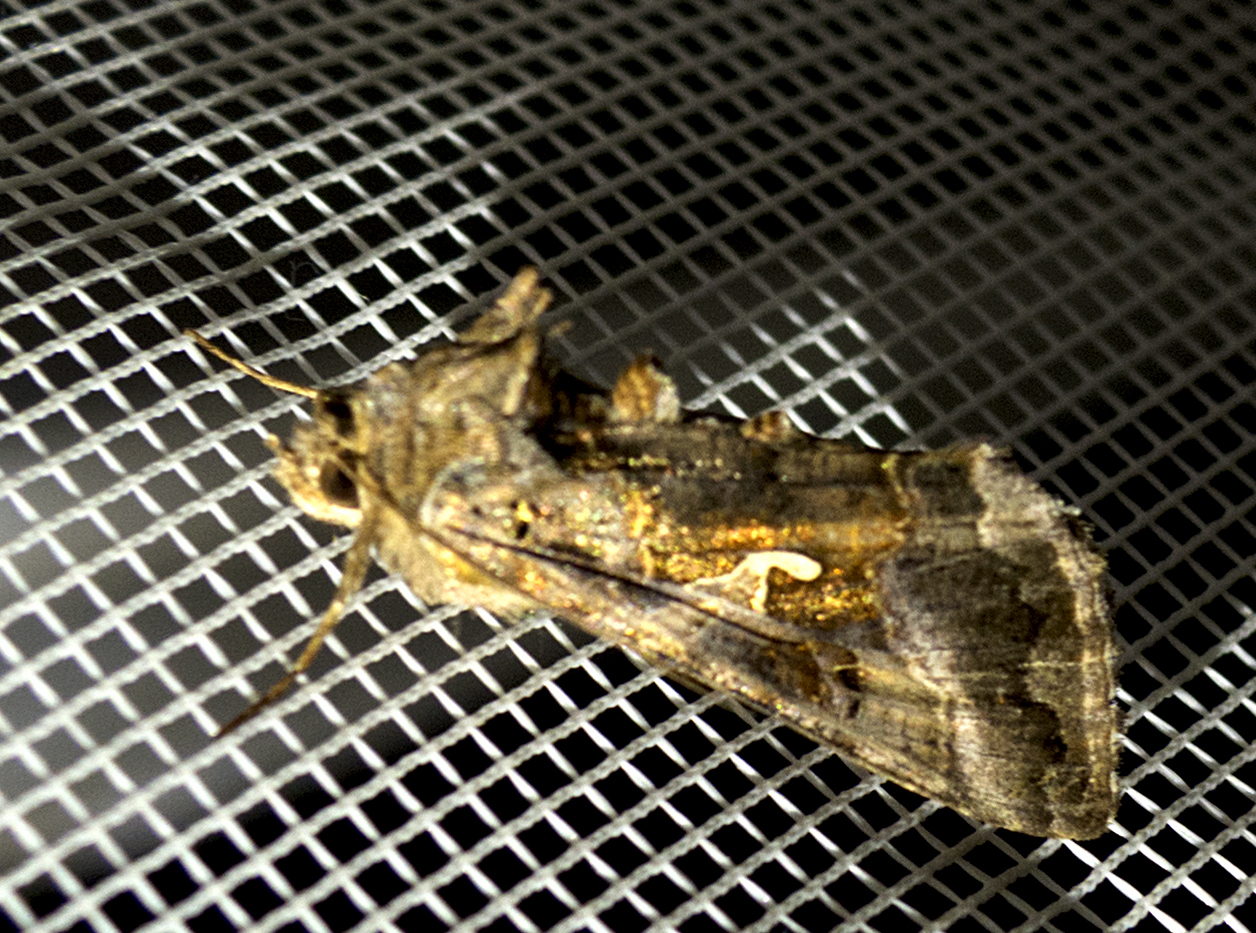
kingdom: Animalia
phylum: Arthropoda
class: Insecta
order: Lepidoptera
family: Noctuidae
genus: Autographa
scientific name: Autographa gamma
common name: Silver y
